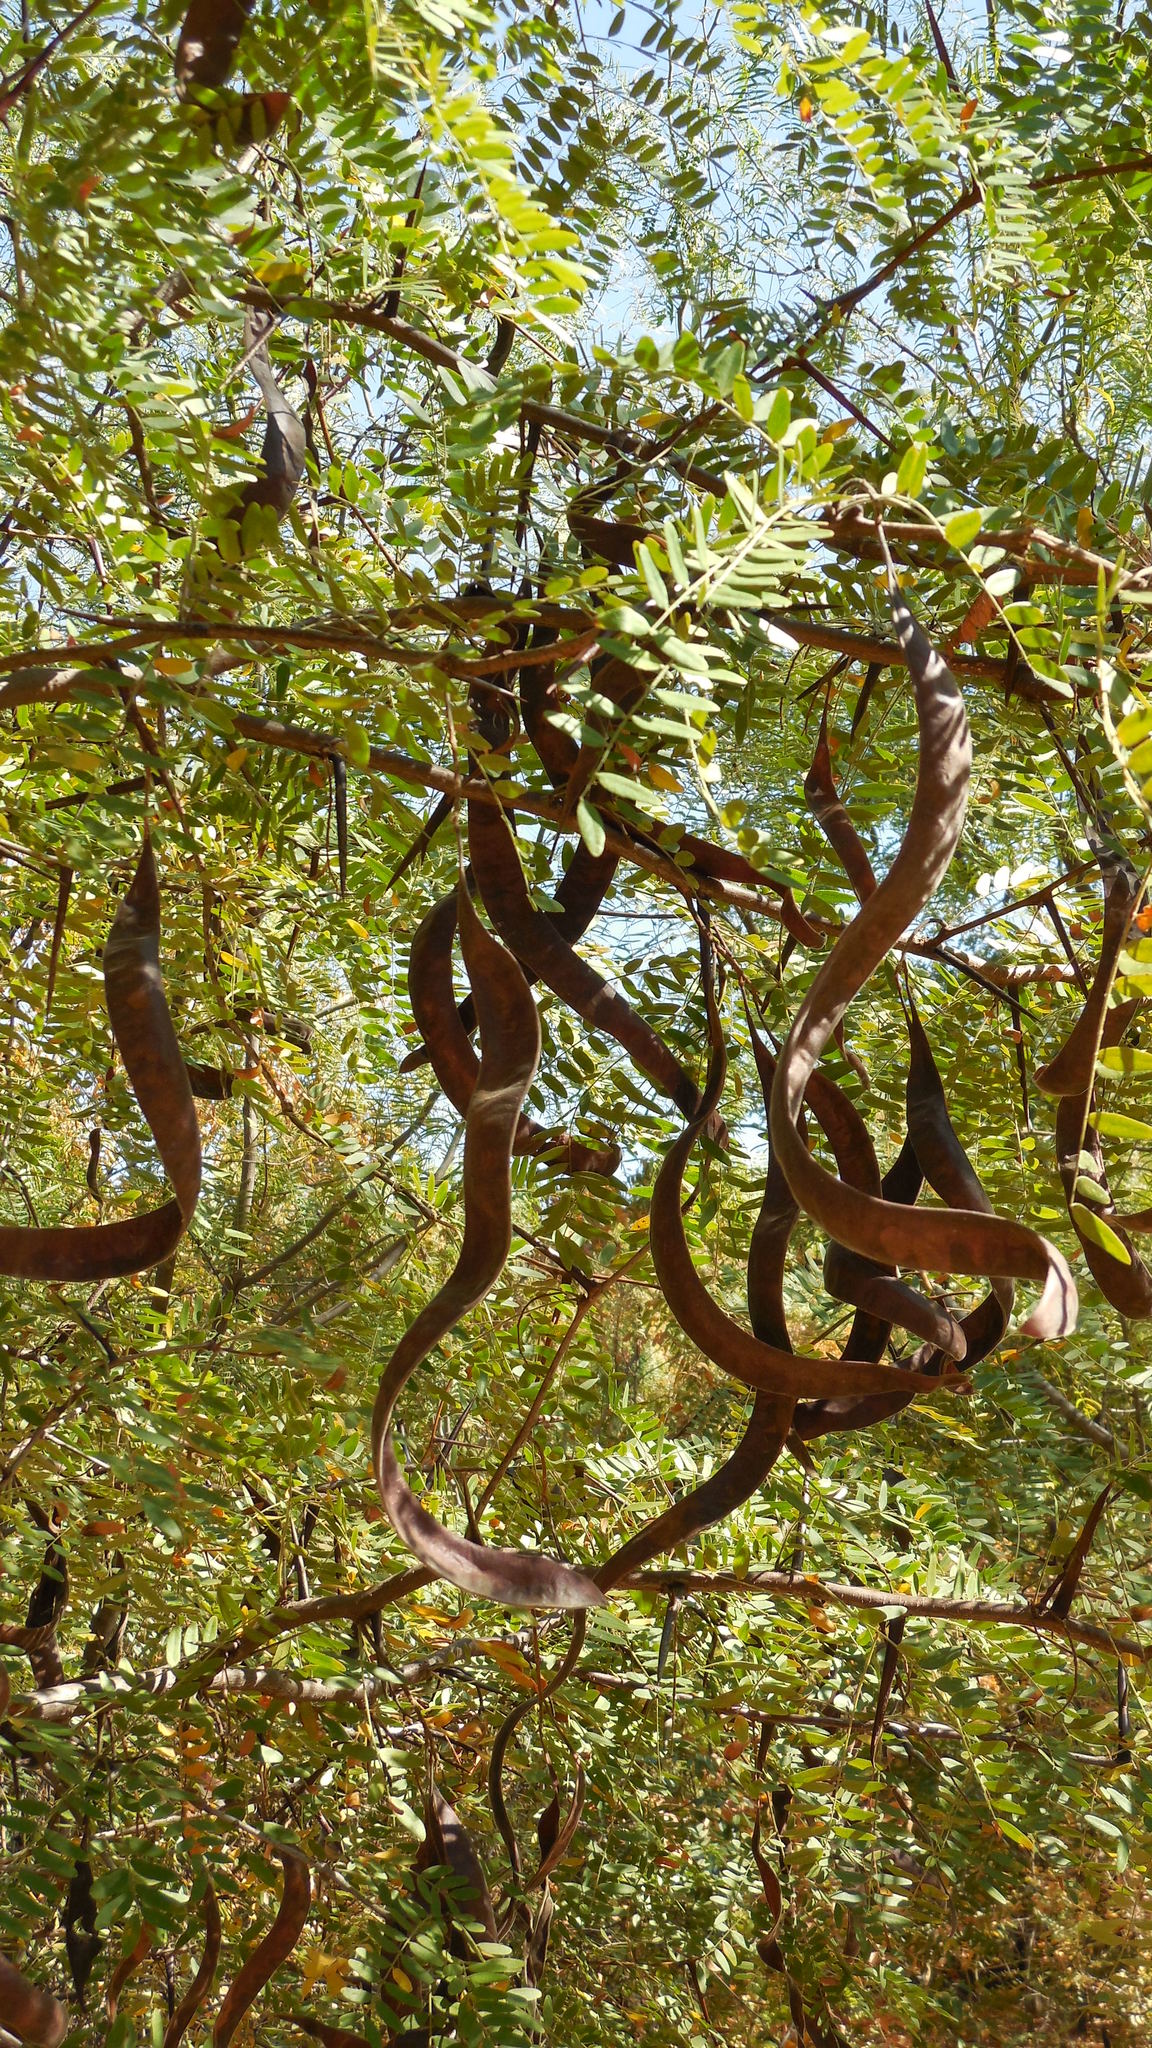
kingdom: Plantae
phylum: Tracheophyta
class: Magnoliopsida
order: Fabales
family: Fabaceae
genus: Gleditsia
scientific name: Gleditsia triacanthos
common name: Common honeylocust
